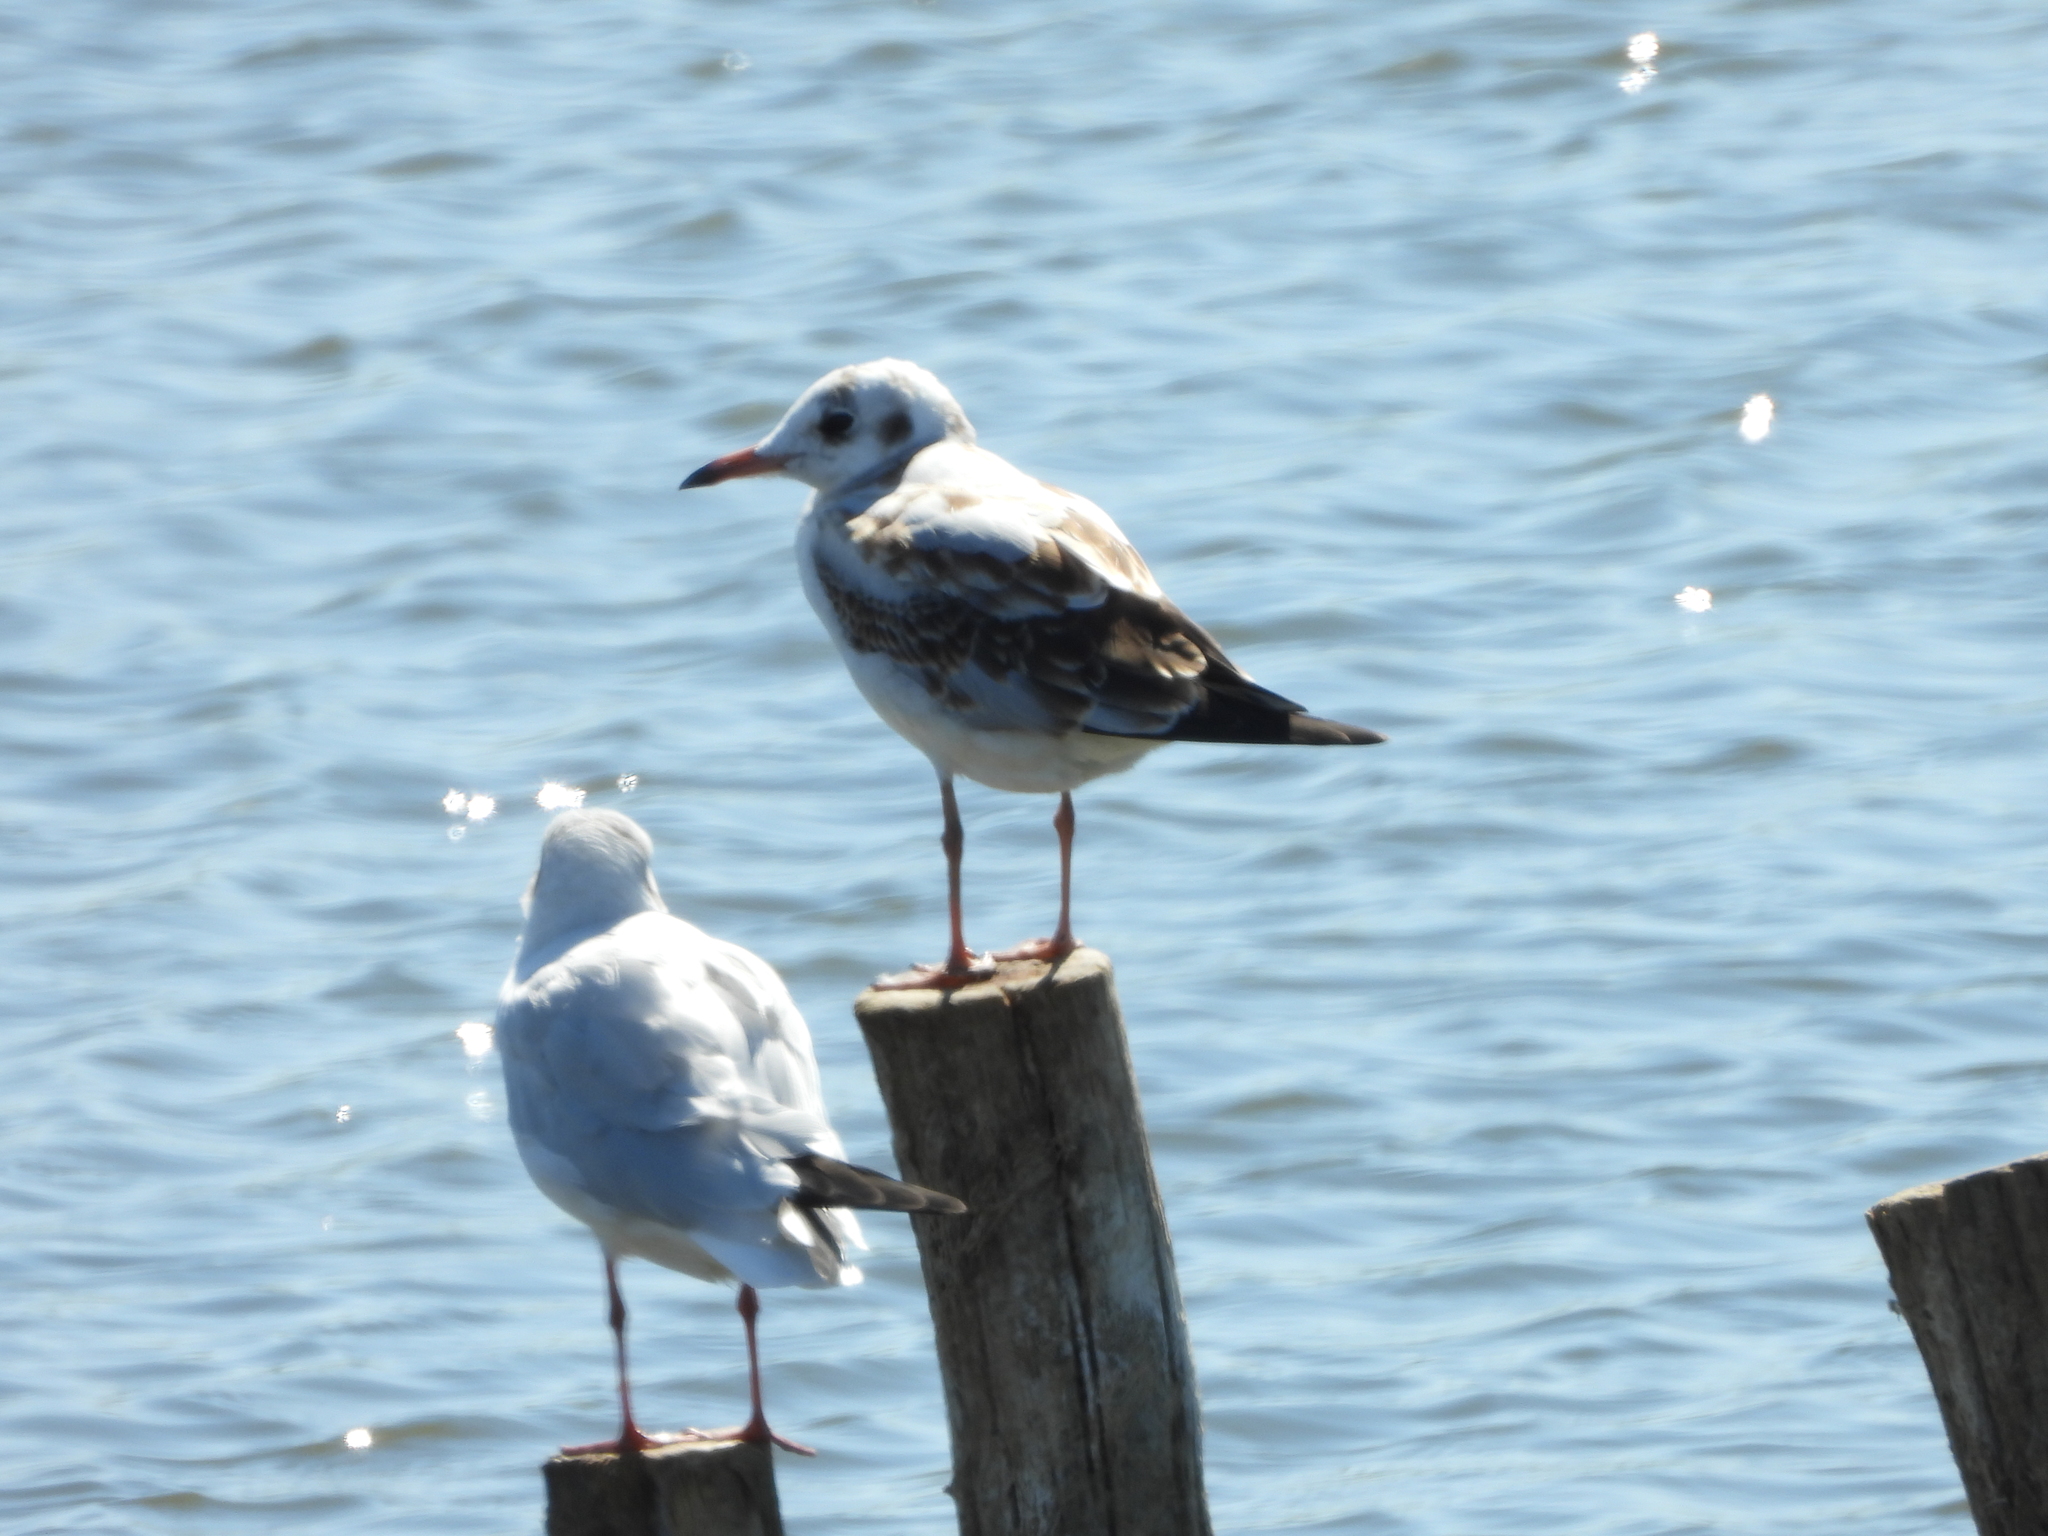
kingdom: Animalia
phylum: Chordata
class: Aves
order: Charadriiformes
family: Laridae
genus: Chroicocephalus
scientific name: Chroicocephalus ridibundus
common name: Black-headed gull
